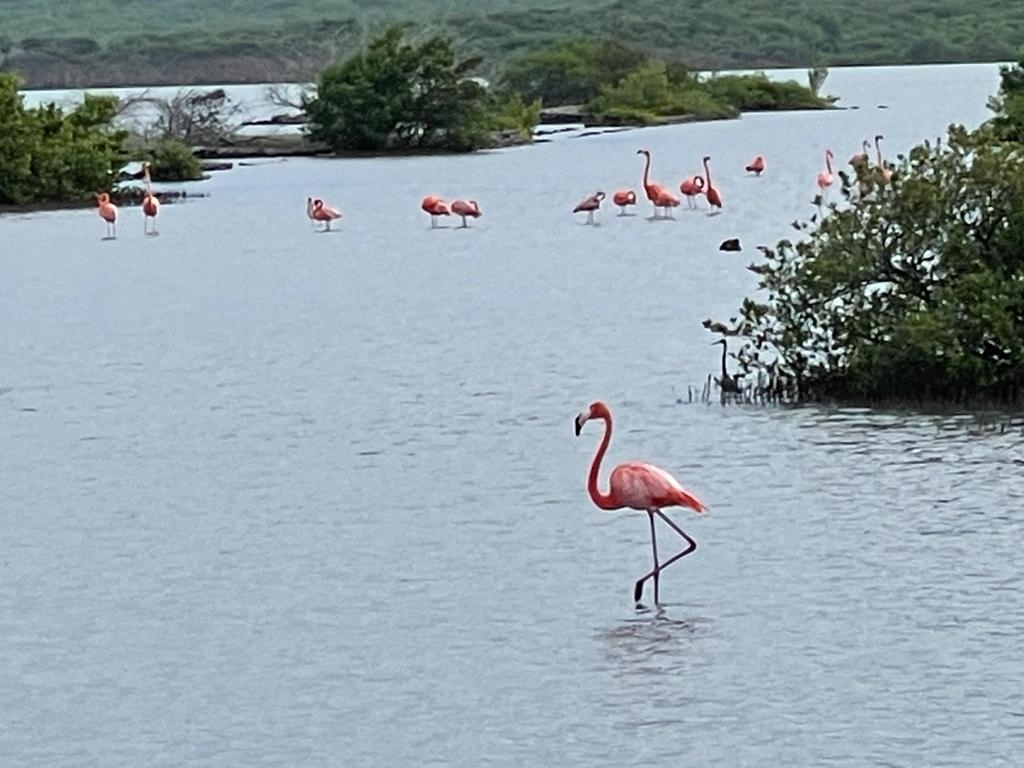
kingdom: Animalia
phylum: Chordata
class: Aves
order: Phoenicopteriformes
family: Phoenicopteridae
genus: Phoenicopterus
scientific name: Phoenicopterus ruber
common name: American flamingo
